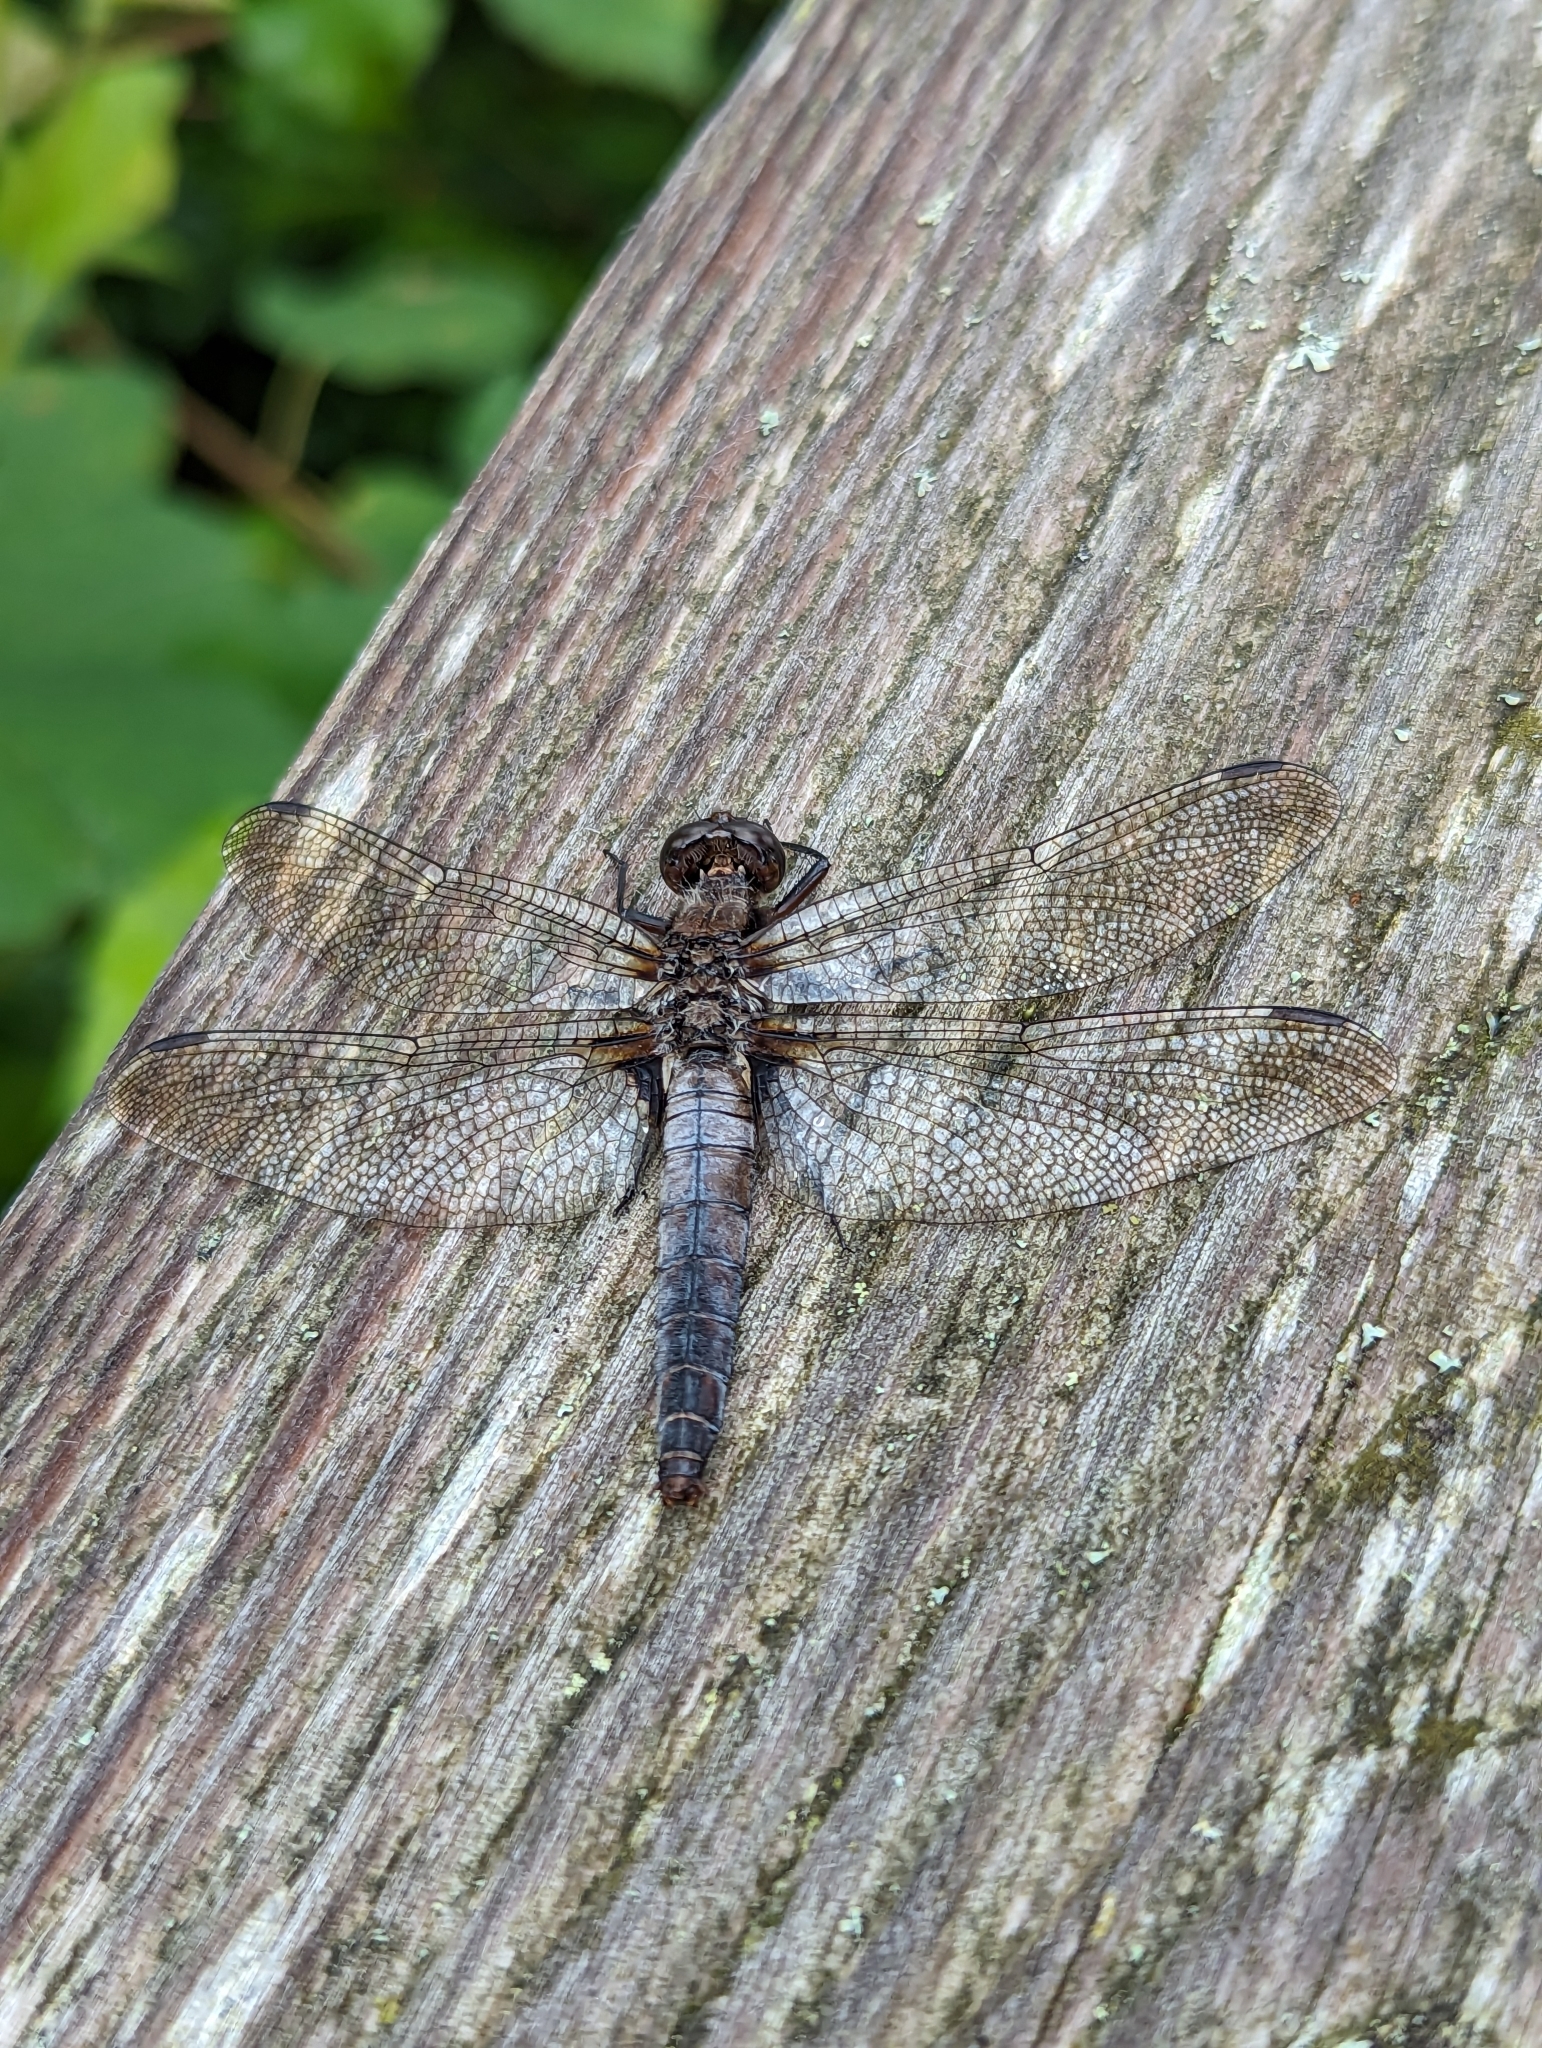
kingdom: Animalia
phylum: Arthropoda
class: Insecta
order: Odonata
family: Libellulidae
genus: Ladona
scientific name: Ladona julia
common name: Chalk-fronted corporal
